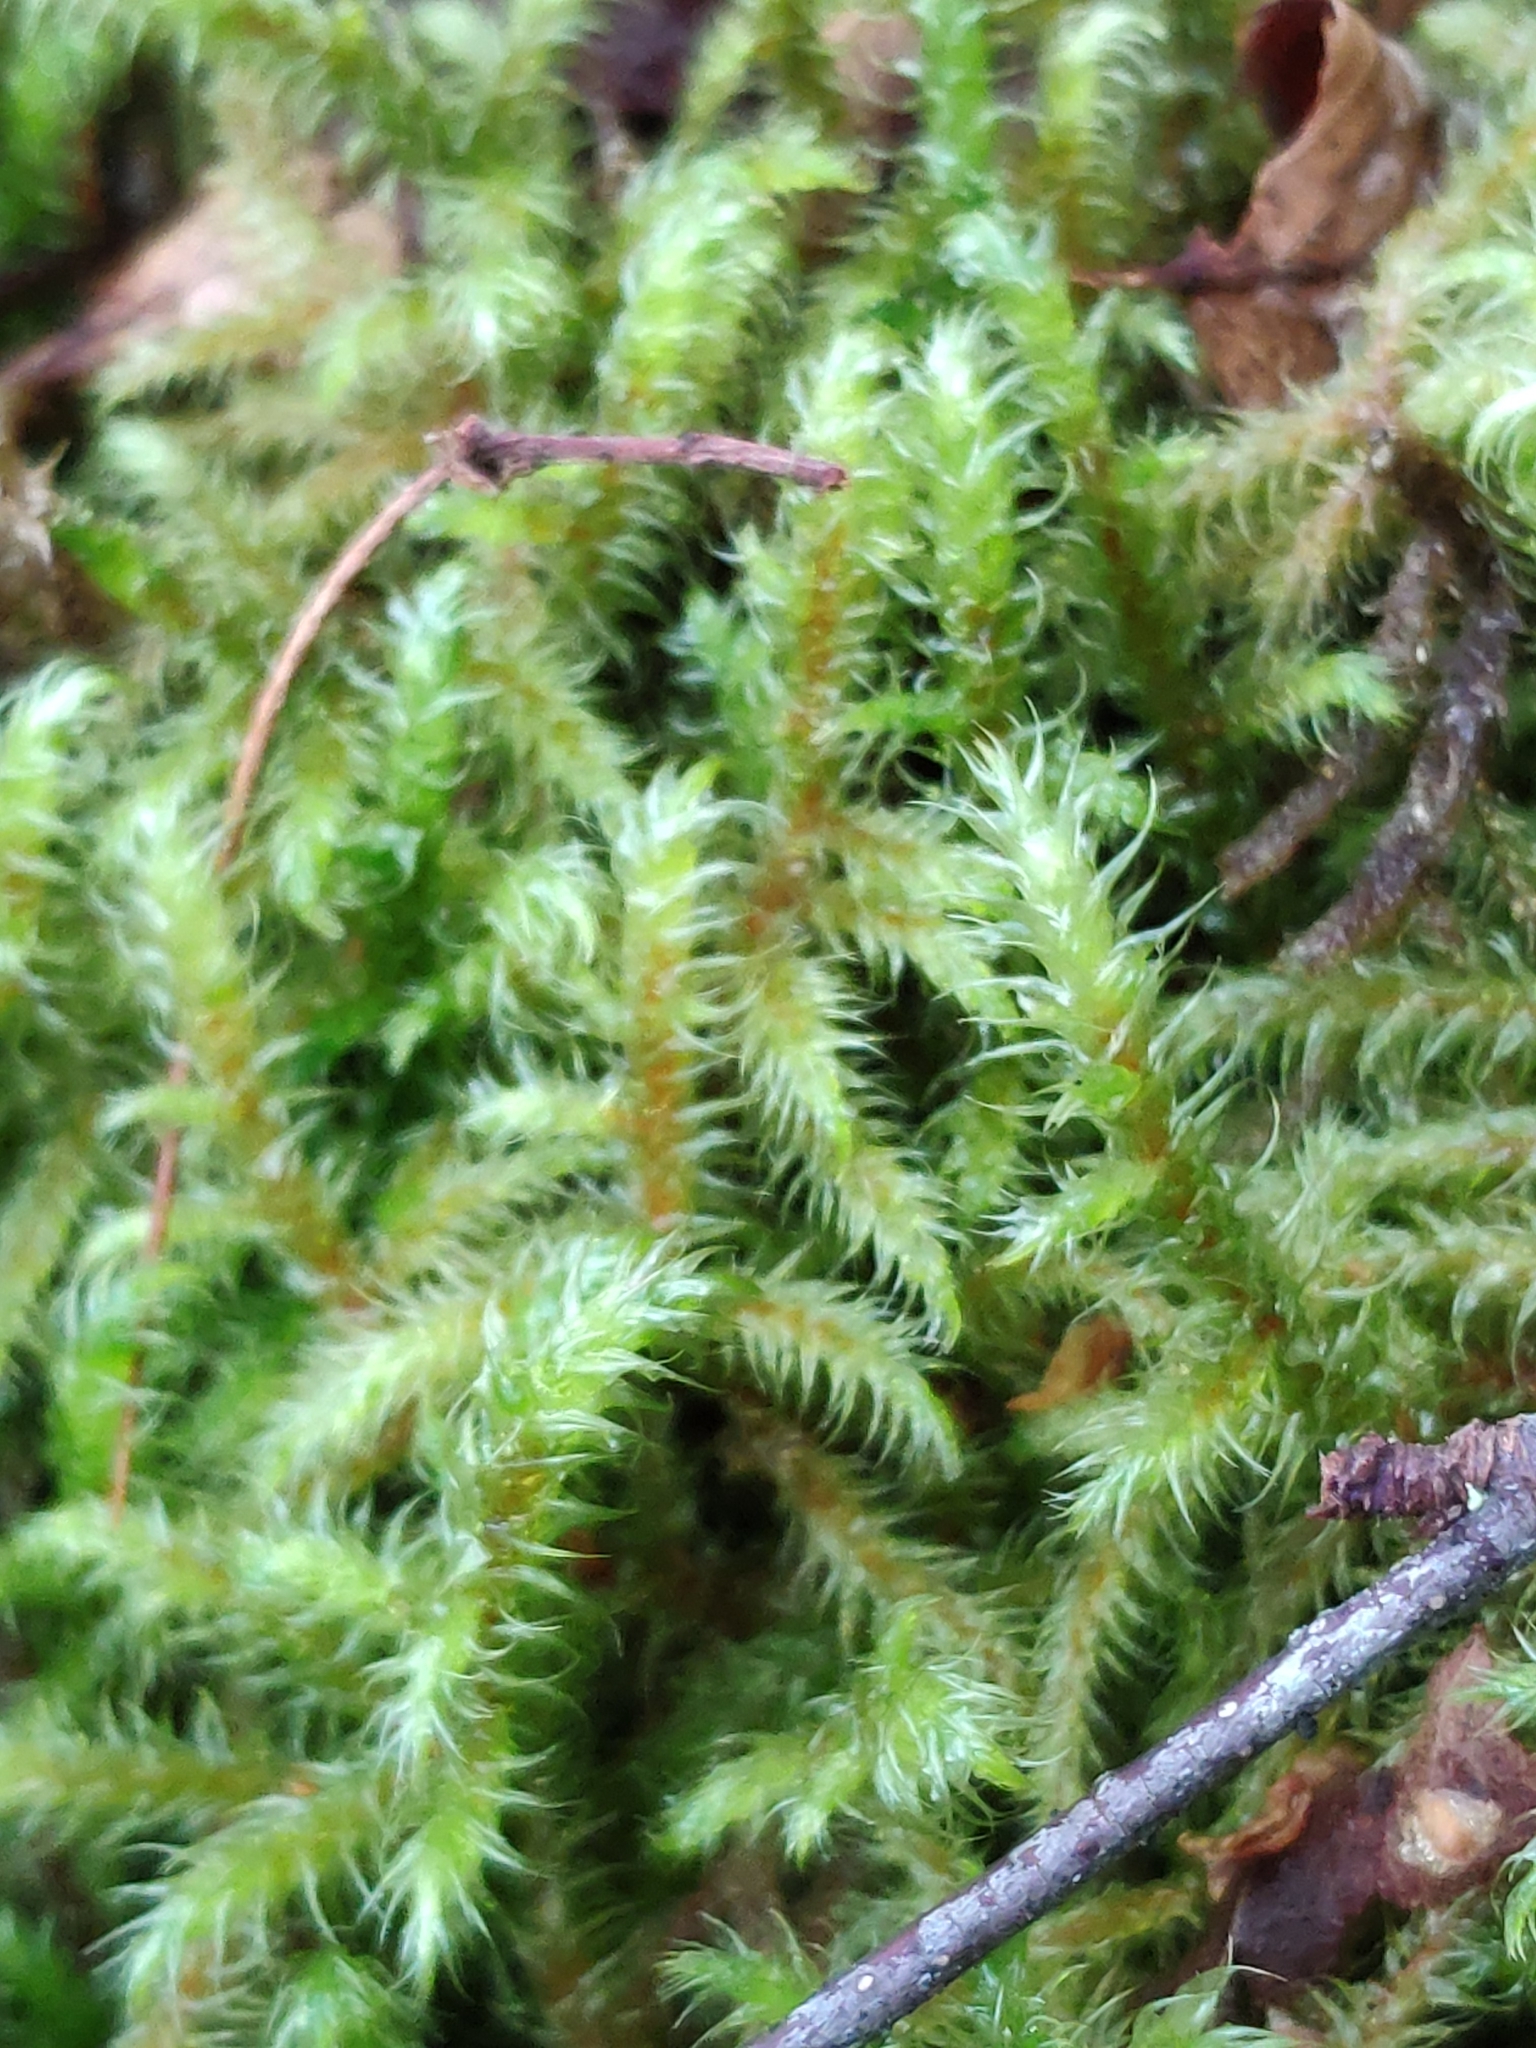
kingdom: Plantae
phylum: Bryophyta
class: Bryopsida
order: Hypnales
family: Hylocomiaceae
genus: Rhytidiadelphus
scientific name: Rhytidiadelphus loreus
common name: Lanky moss
